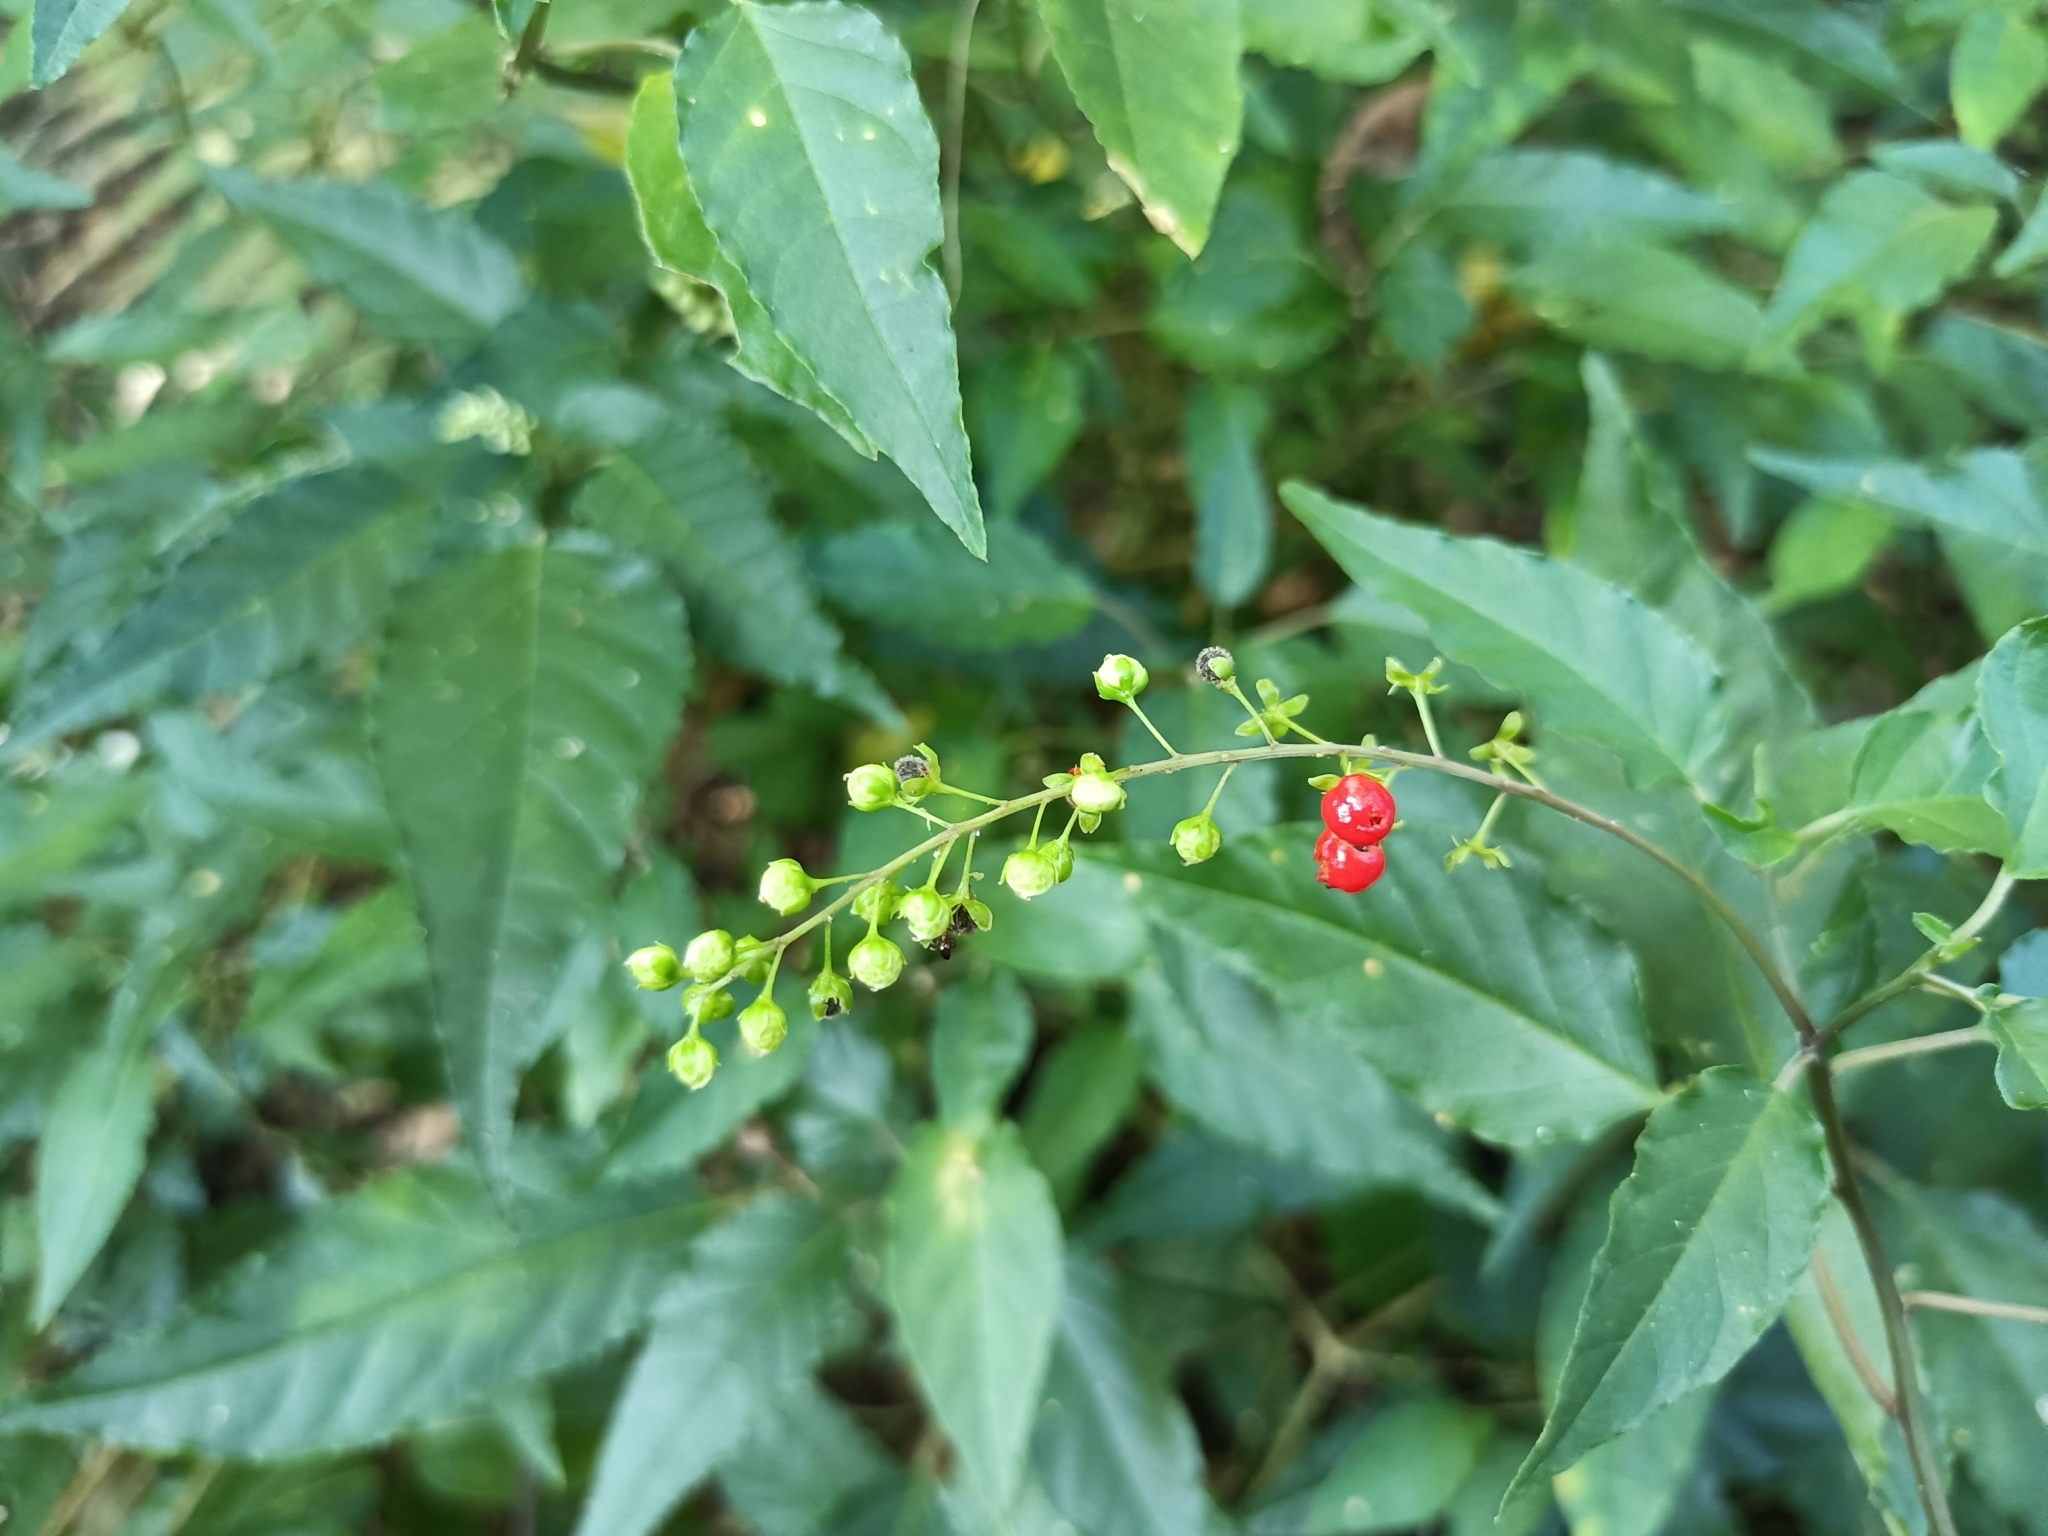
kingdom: Plantae
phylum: Tracheophyta
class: Magnoliopsida
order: Caryophyllales
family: Phytolaccaceae
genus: Rivina
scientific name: Rivina humilis
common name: Rougeplant
